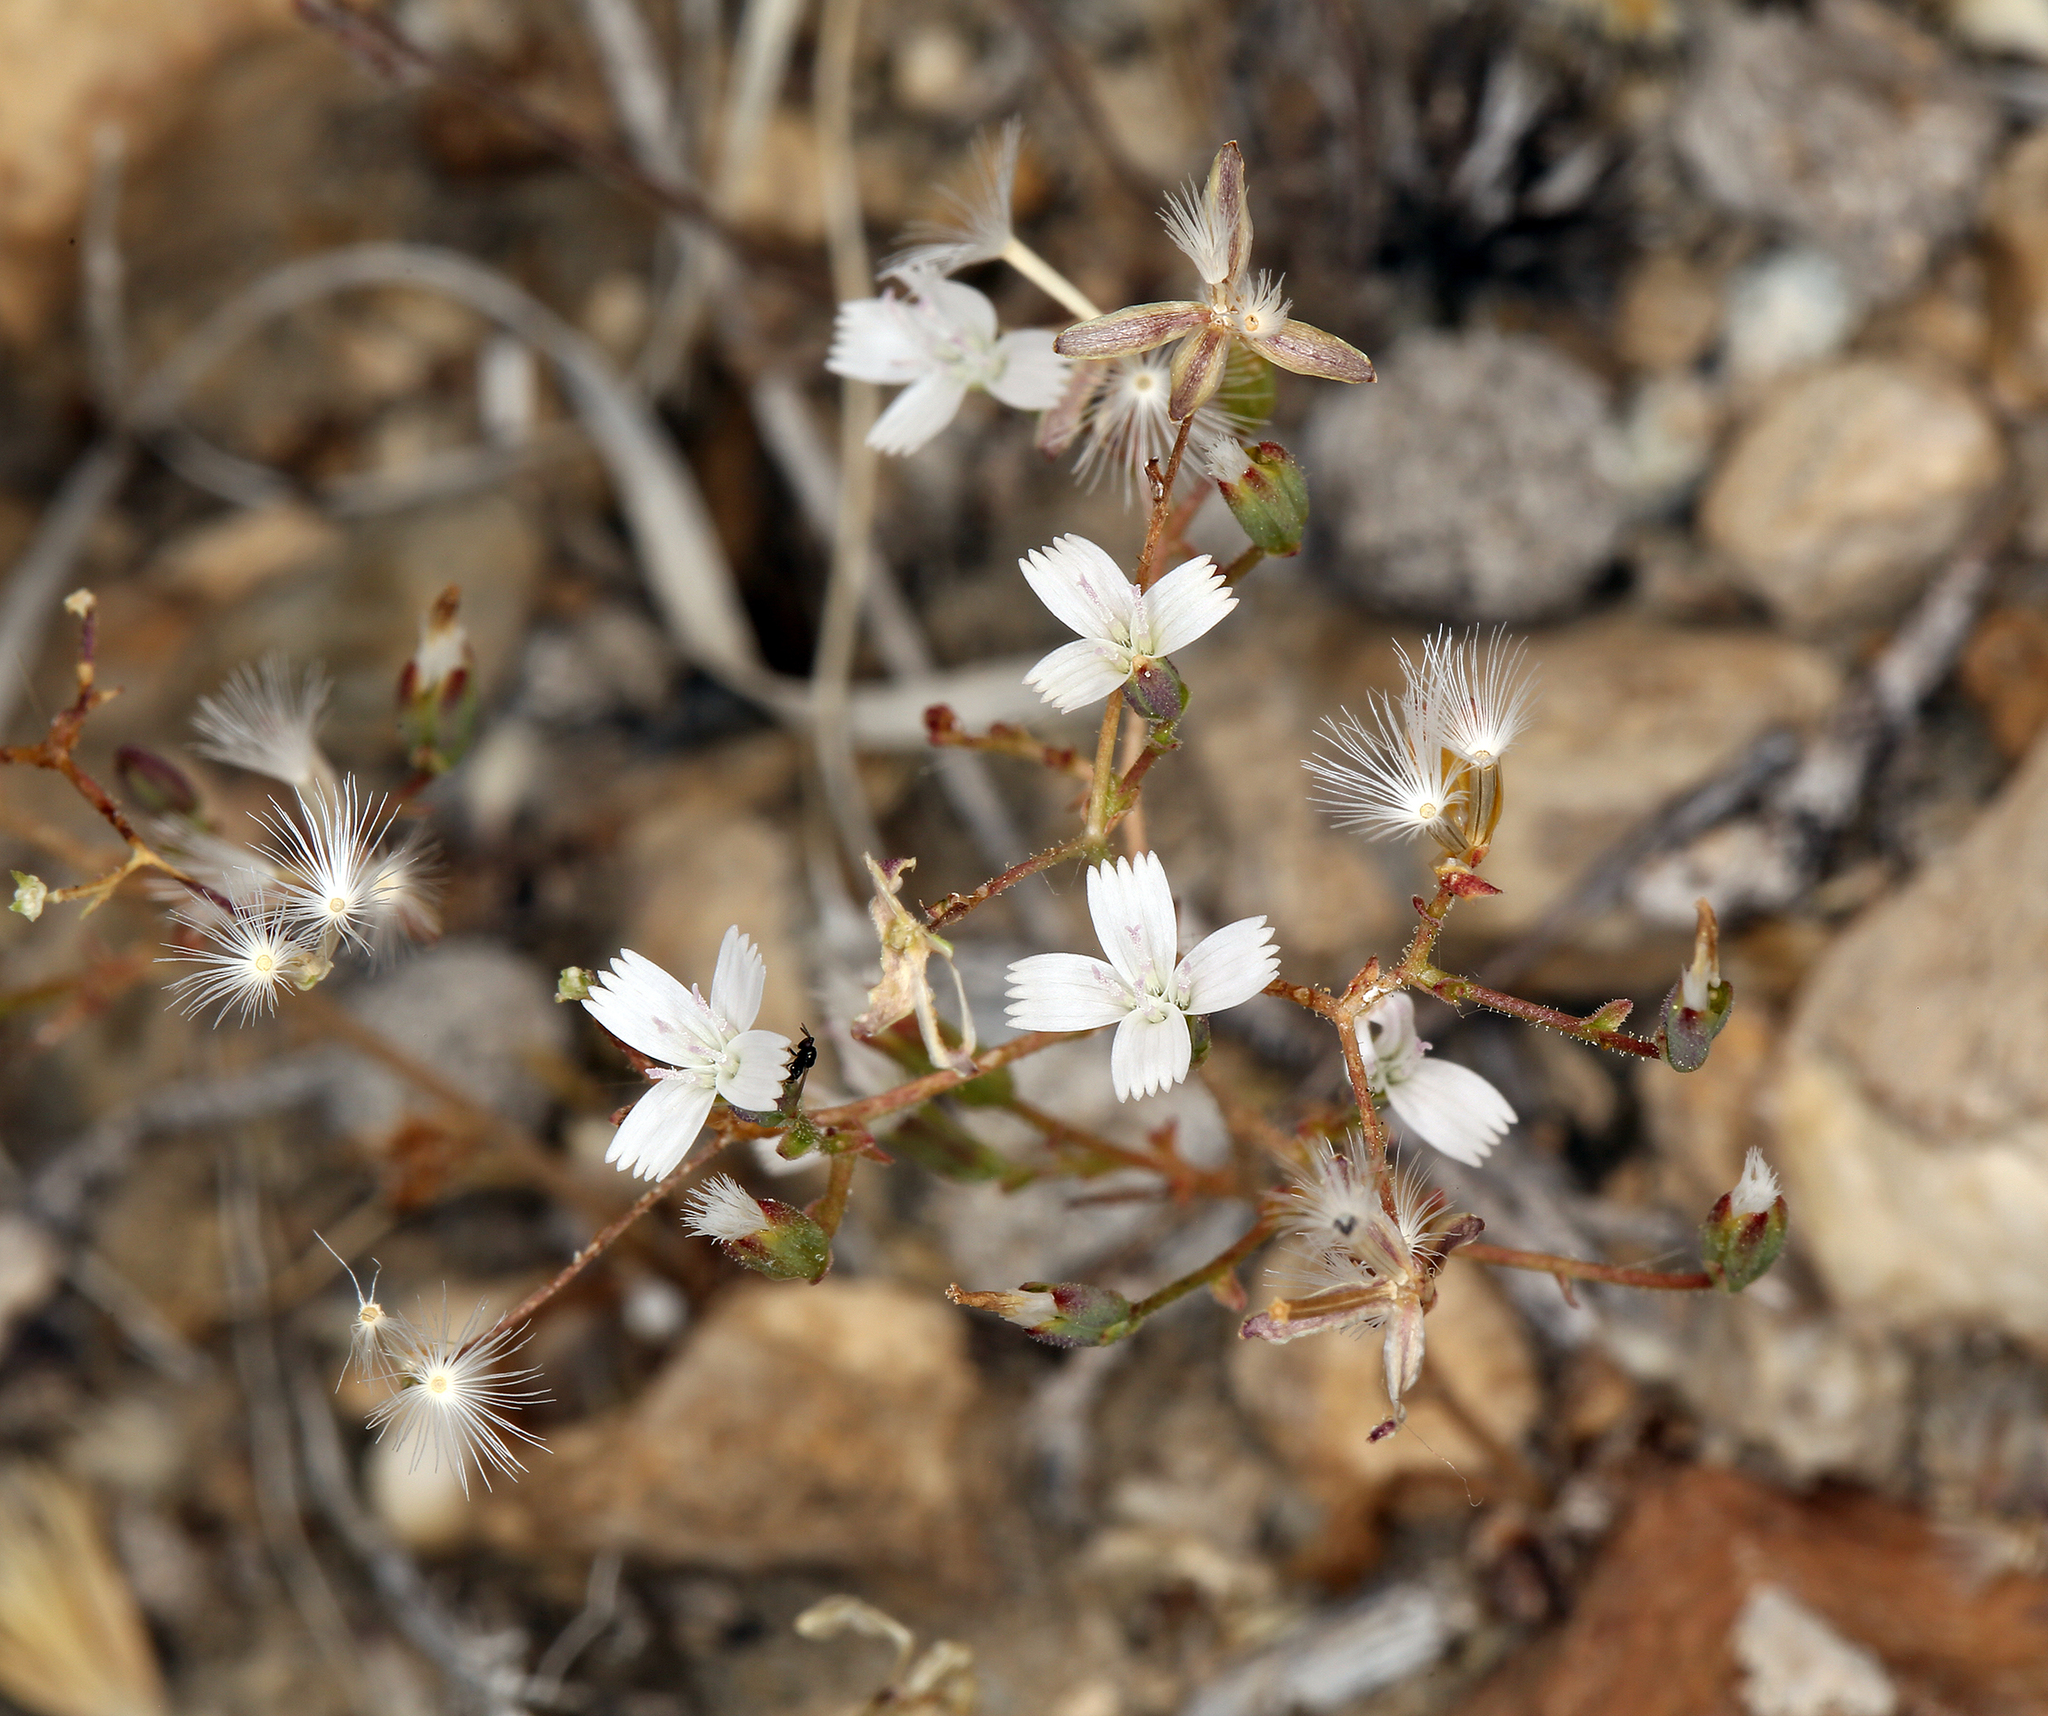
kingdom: Plantae
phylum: Tracheophyta
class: Magnoliopsida
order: Asterales
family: Asteraceae
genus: Lygodesmia
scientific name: Lygodesmia exigua
